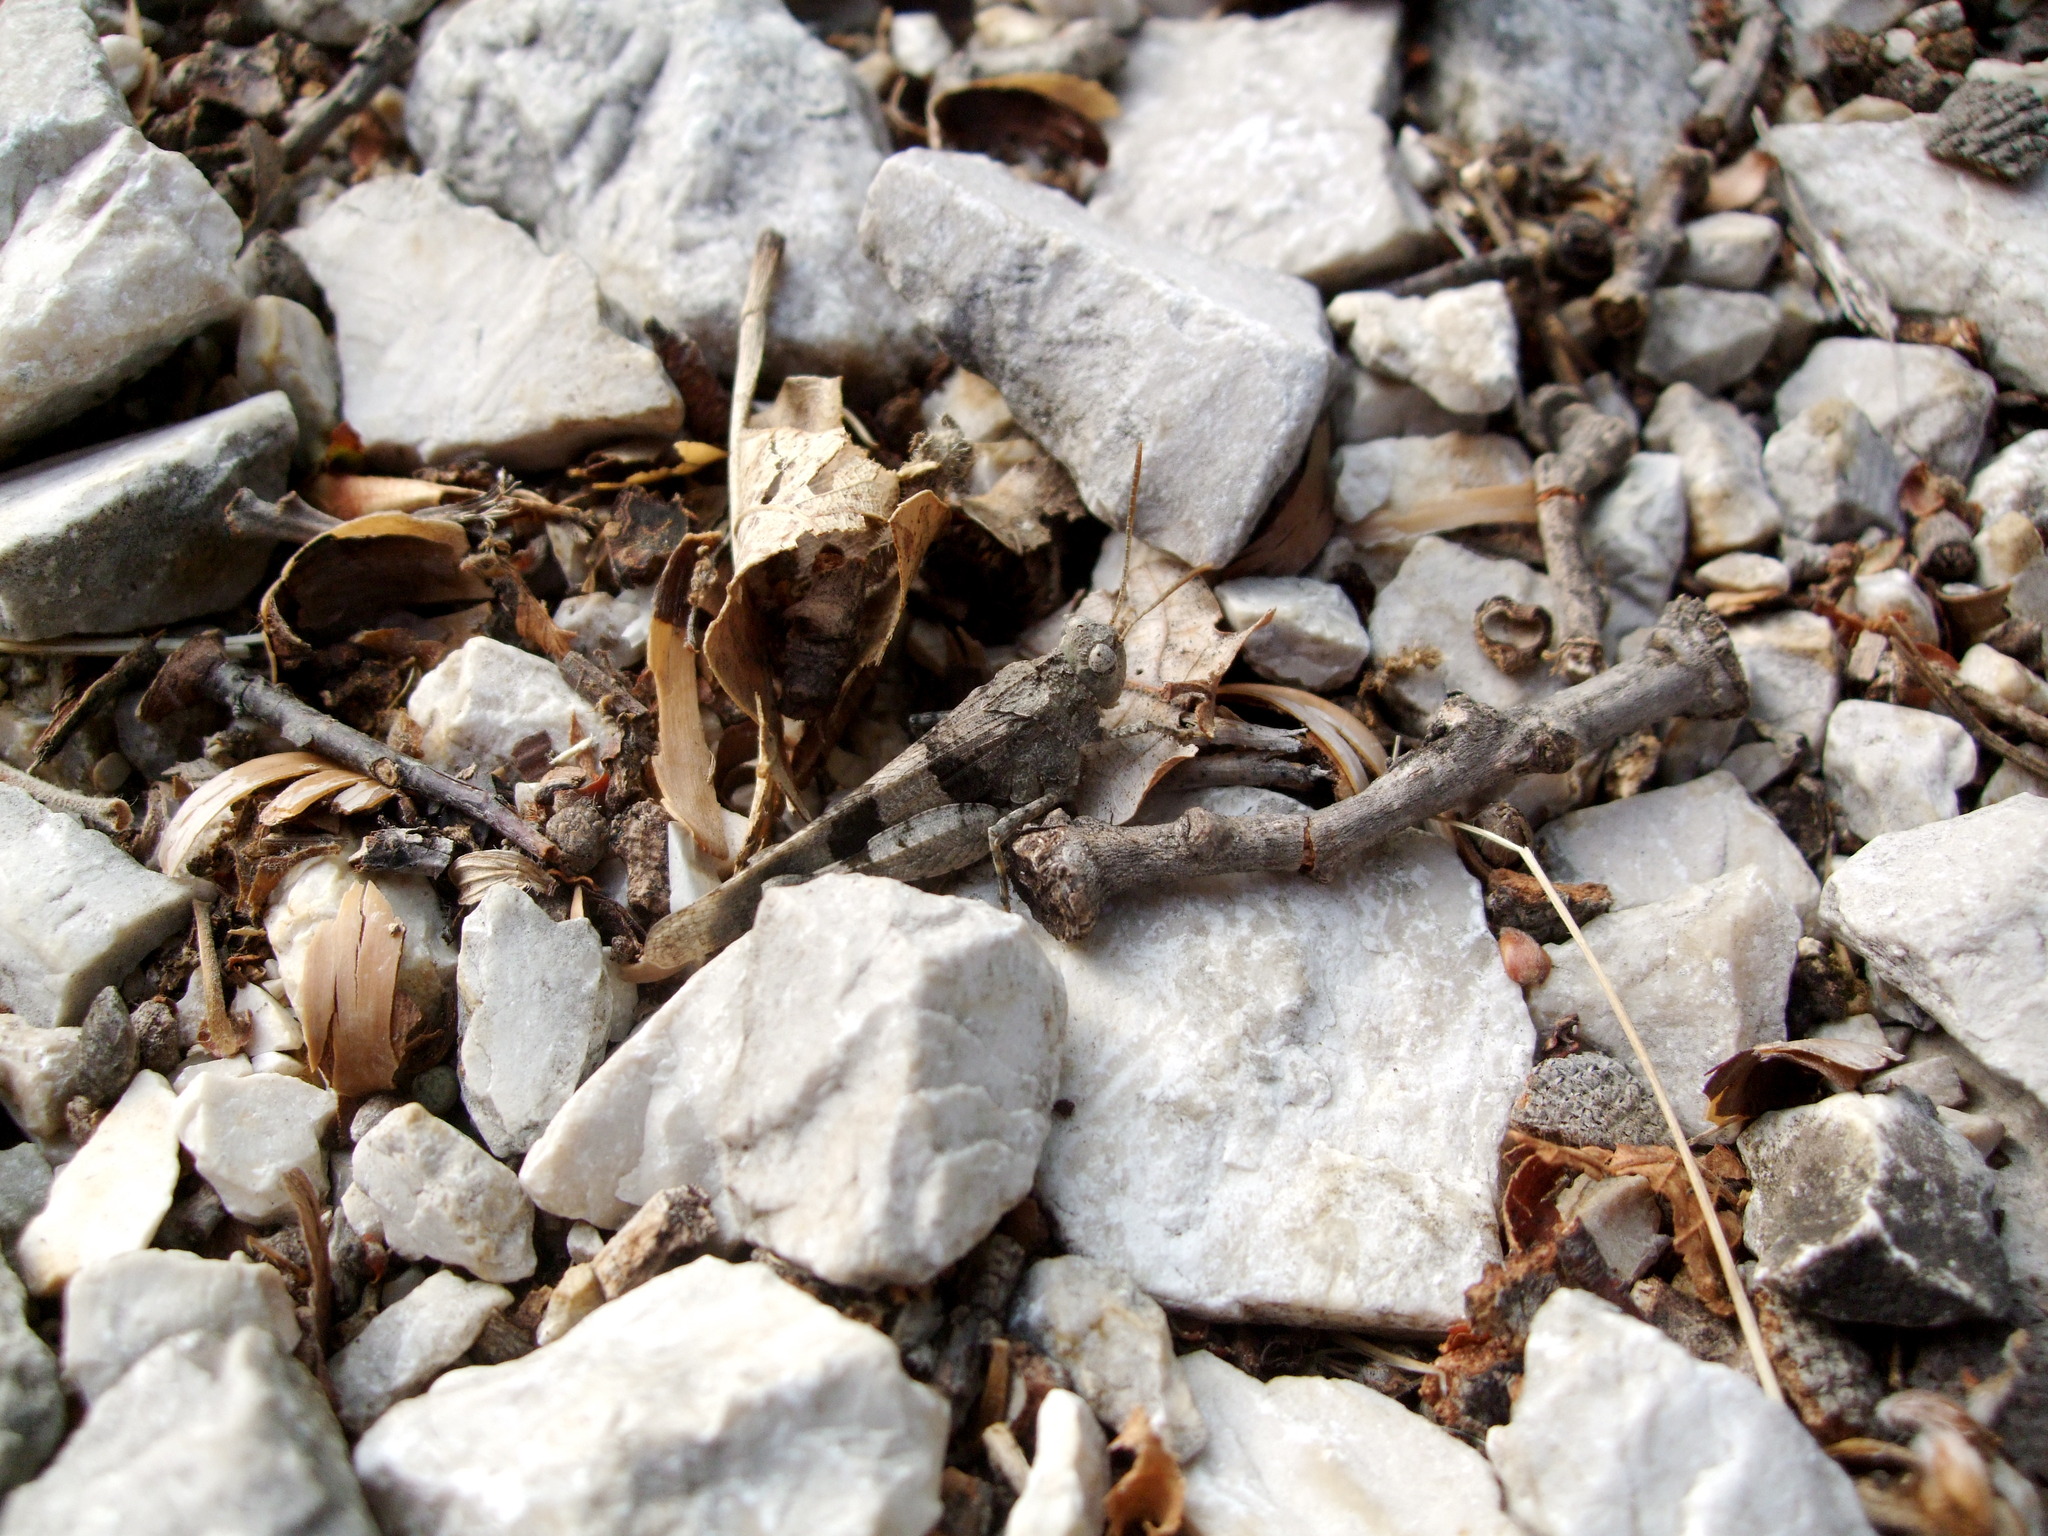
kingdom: Animalia
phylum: Arthropoda
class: Insecta
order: Orthoptera
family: Acrididae
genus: Oedipoda
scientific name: Oedipoda caerulescens
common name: Blue-winged grasshopper
